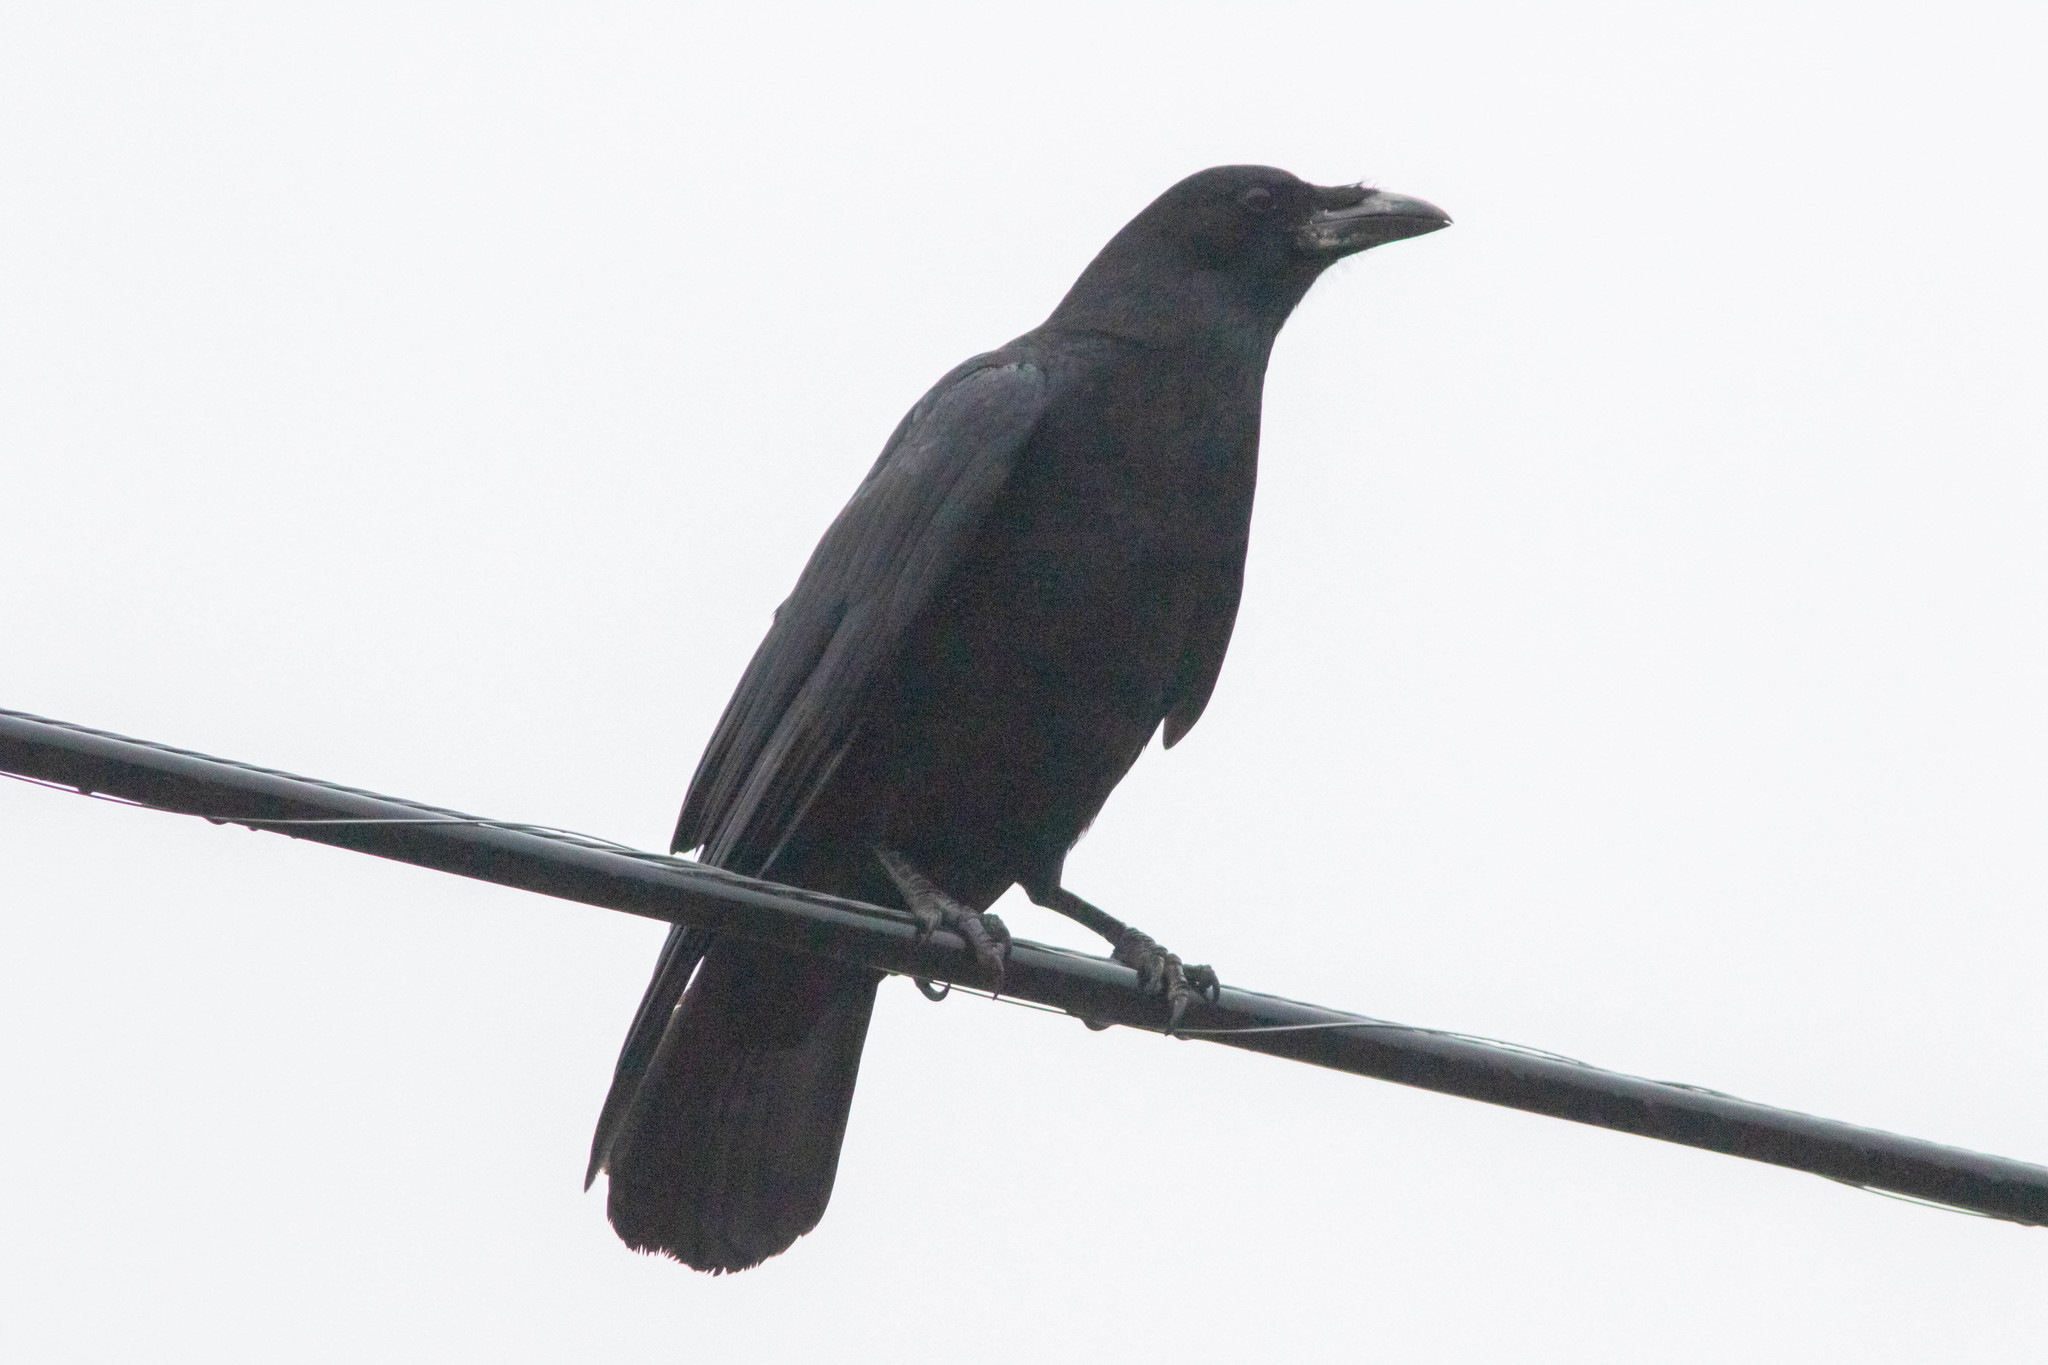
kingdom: Animalia
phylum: Chordata
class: Aves
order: Passeriformes
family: Corvidae
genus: Corvus
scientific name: Corvus brachyrhynchos
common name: American crow
